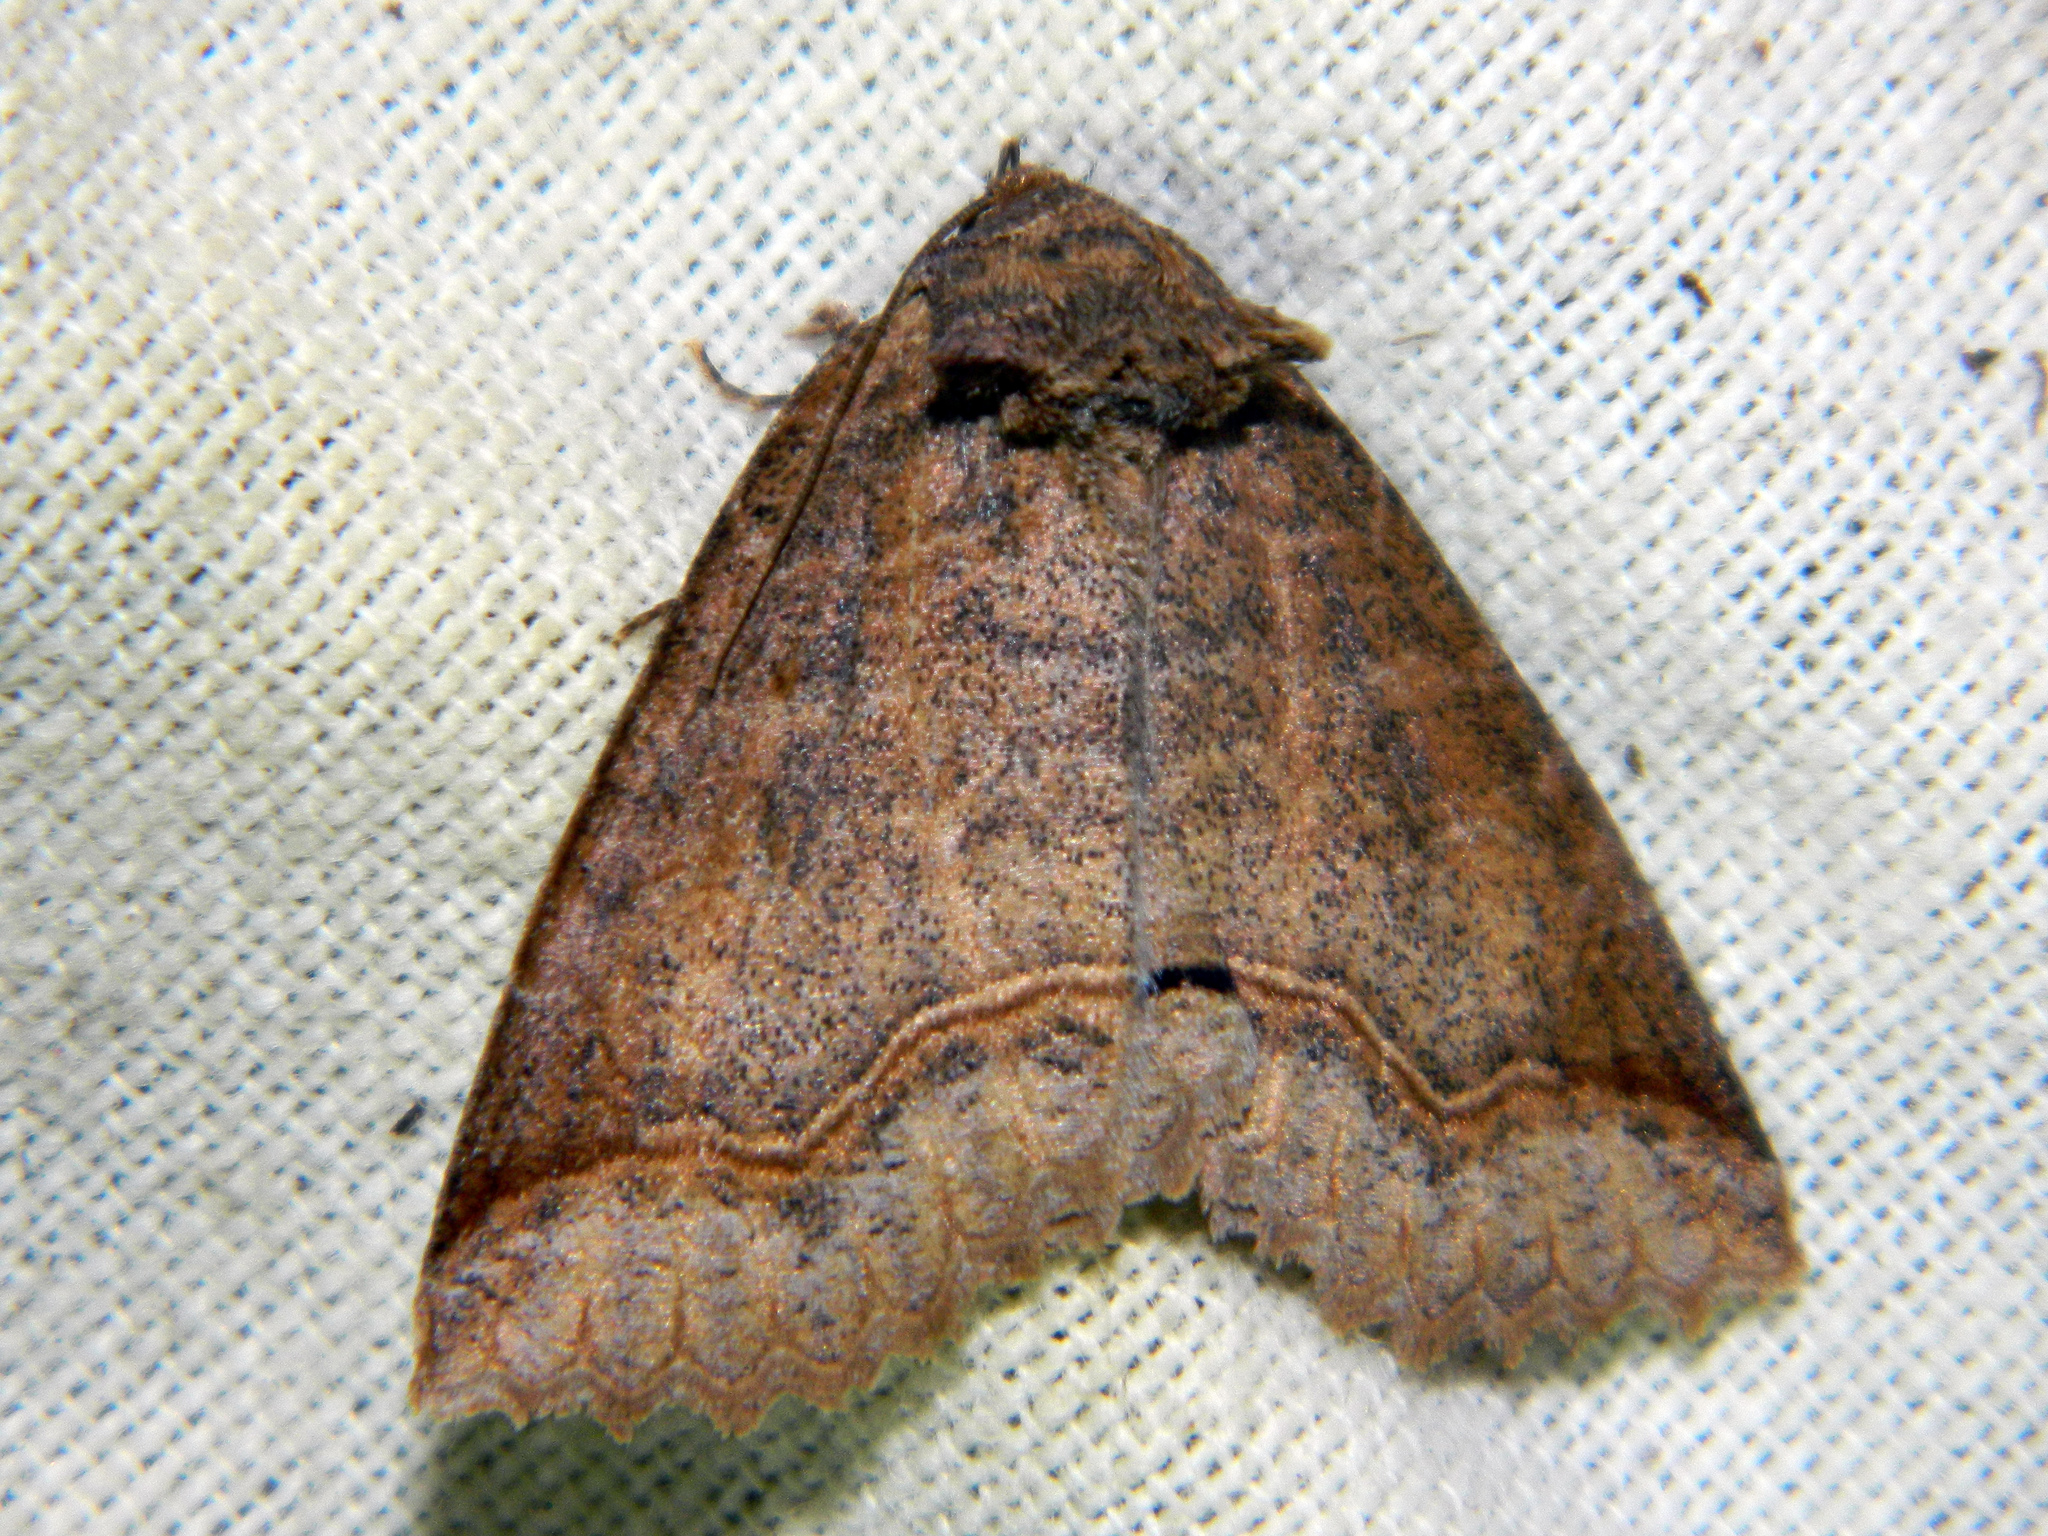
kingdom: Animalia
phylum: Arthropoda
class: Insecta
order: Lepidoptera
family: Erebidae
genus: Zale
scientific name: Zale unilineata
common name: One-lined zale moth
